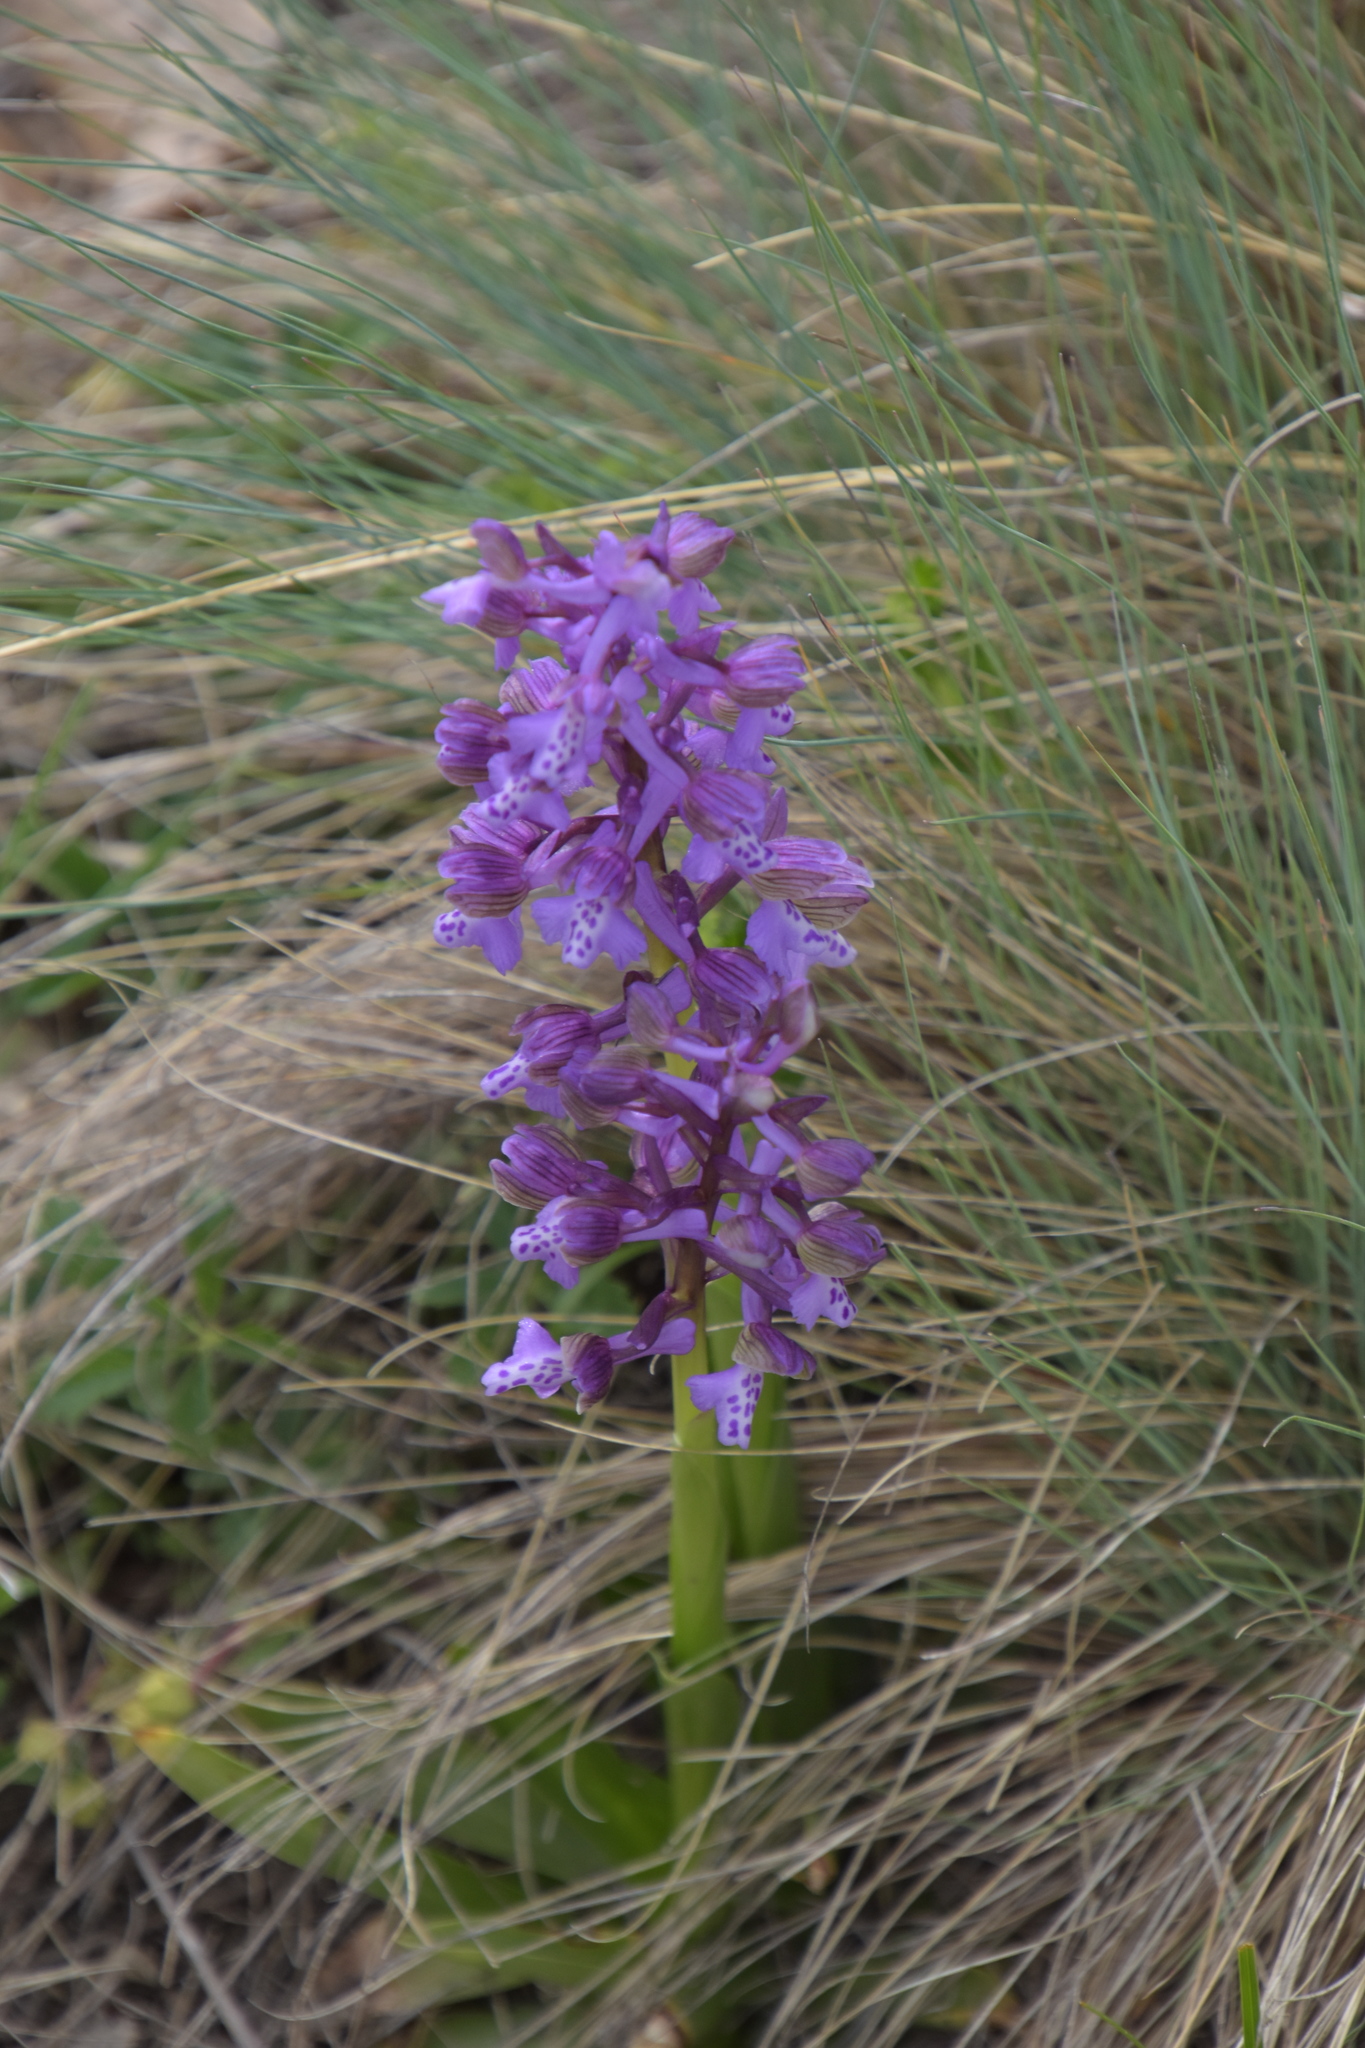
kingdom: Plantae
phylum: Tracheophyta
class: Liliopsida
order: Asparagales
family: Orchidaceae
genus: Anacamptis
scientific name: Anacamptis morio
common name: Green-winged orchid
